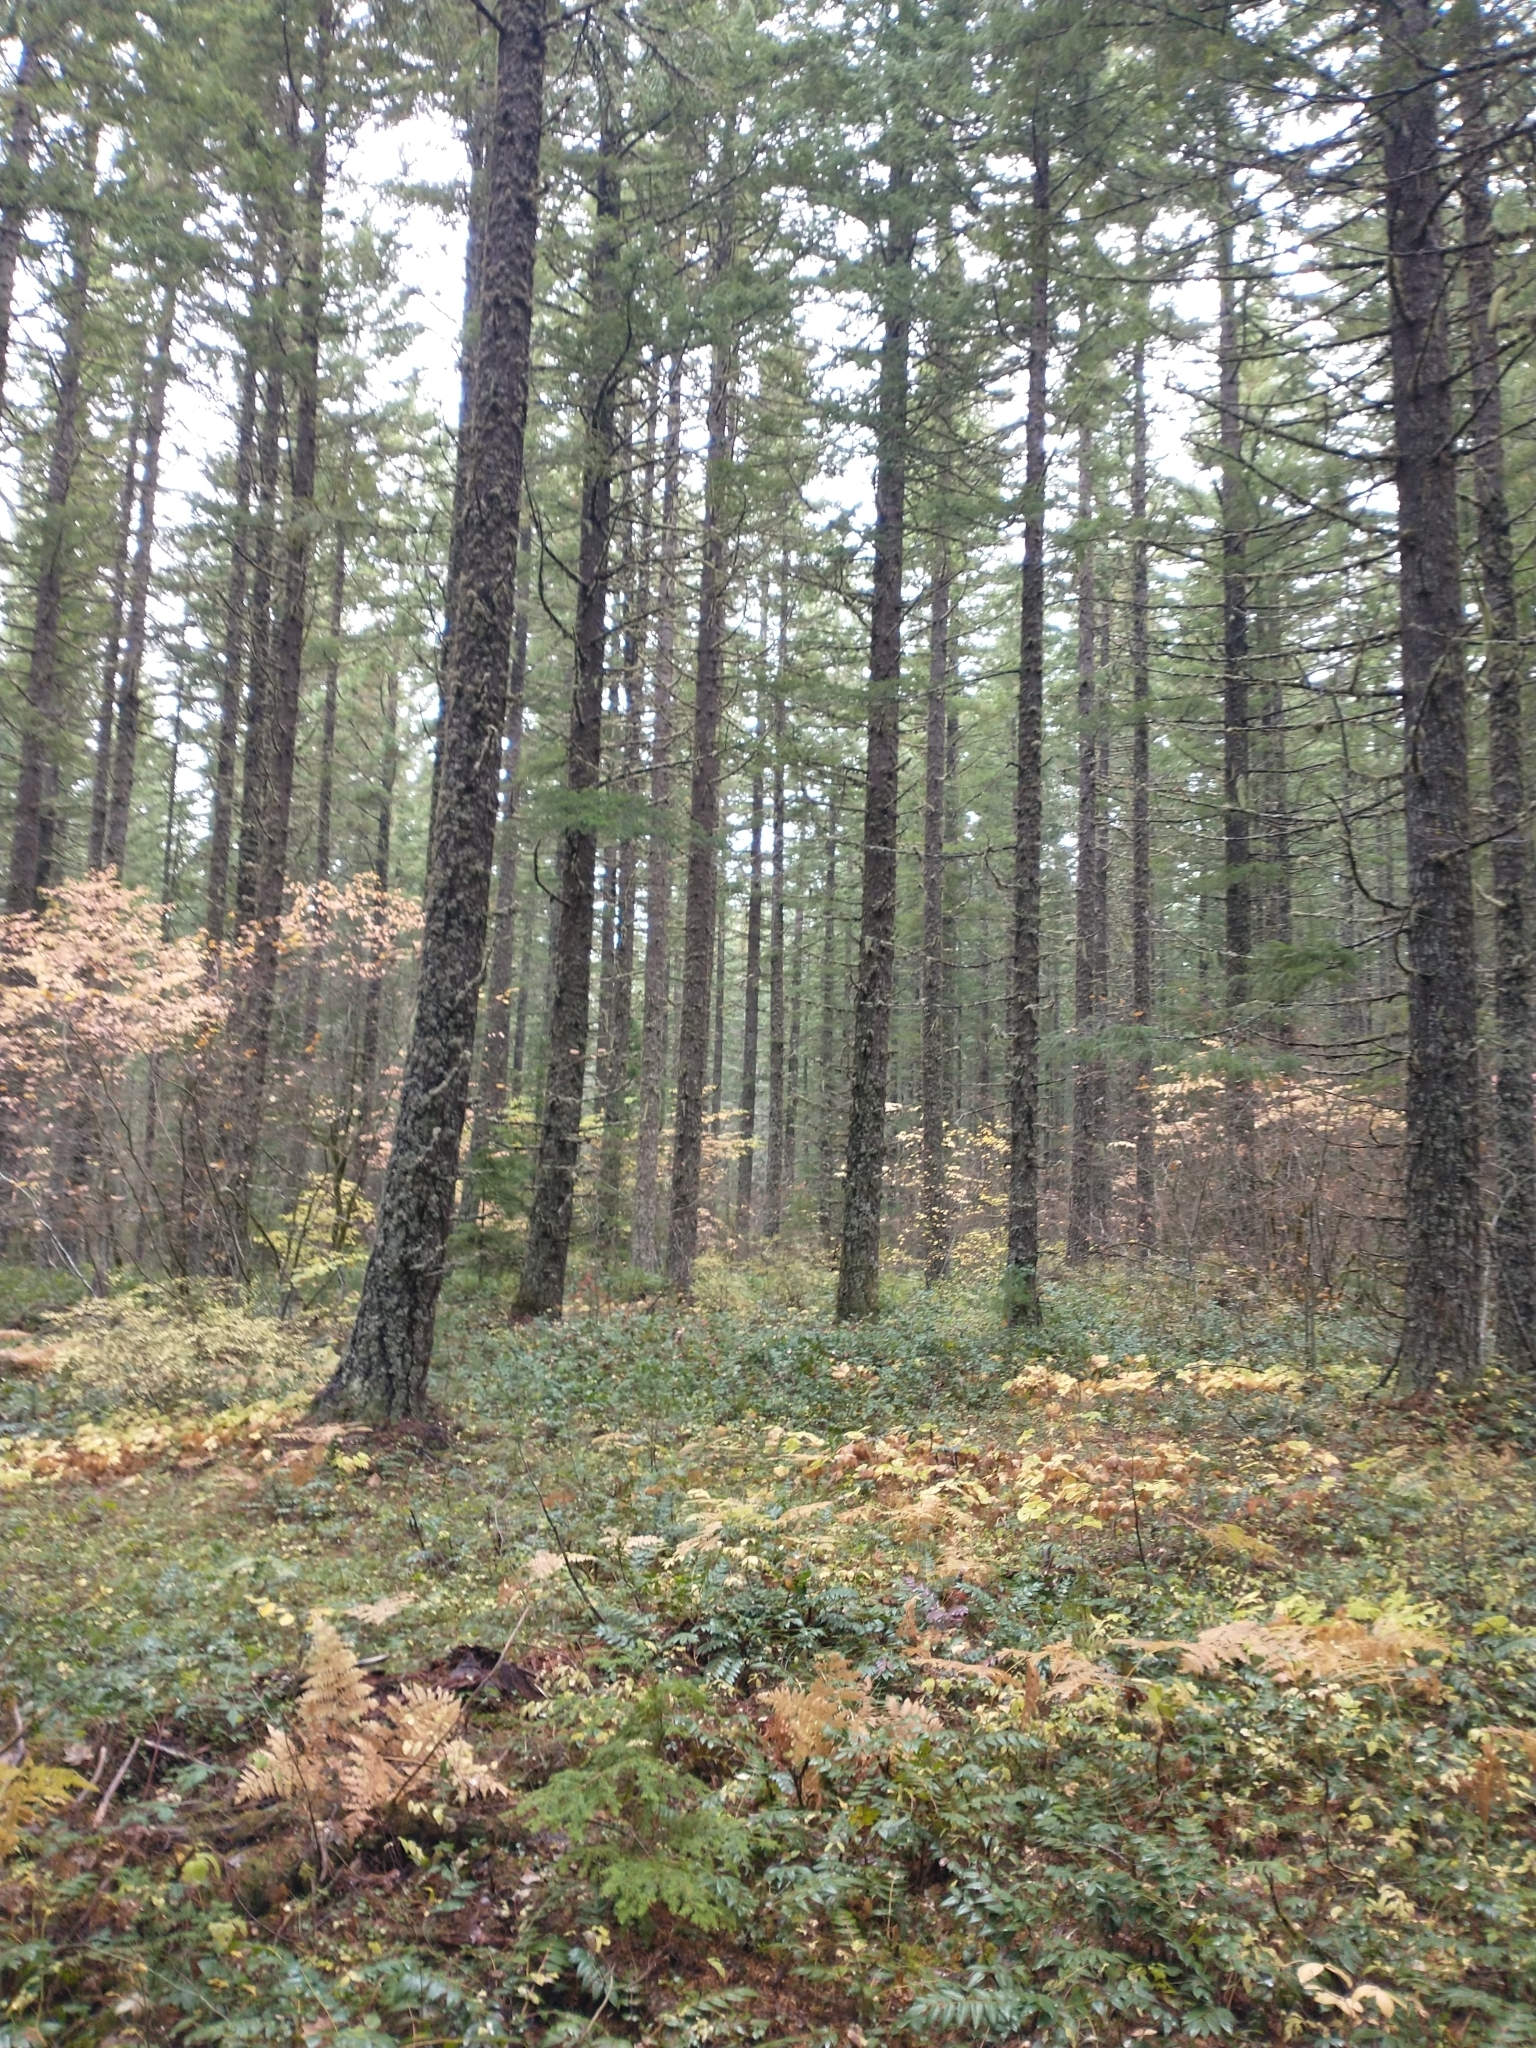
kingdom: Plantae
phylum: Tracheophyta
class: Magnoliopsida
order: Ranunculales
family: Berberidaceae
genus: Mahonia
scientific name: Mahonia nervosa
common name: Cascade oregon-grape
